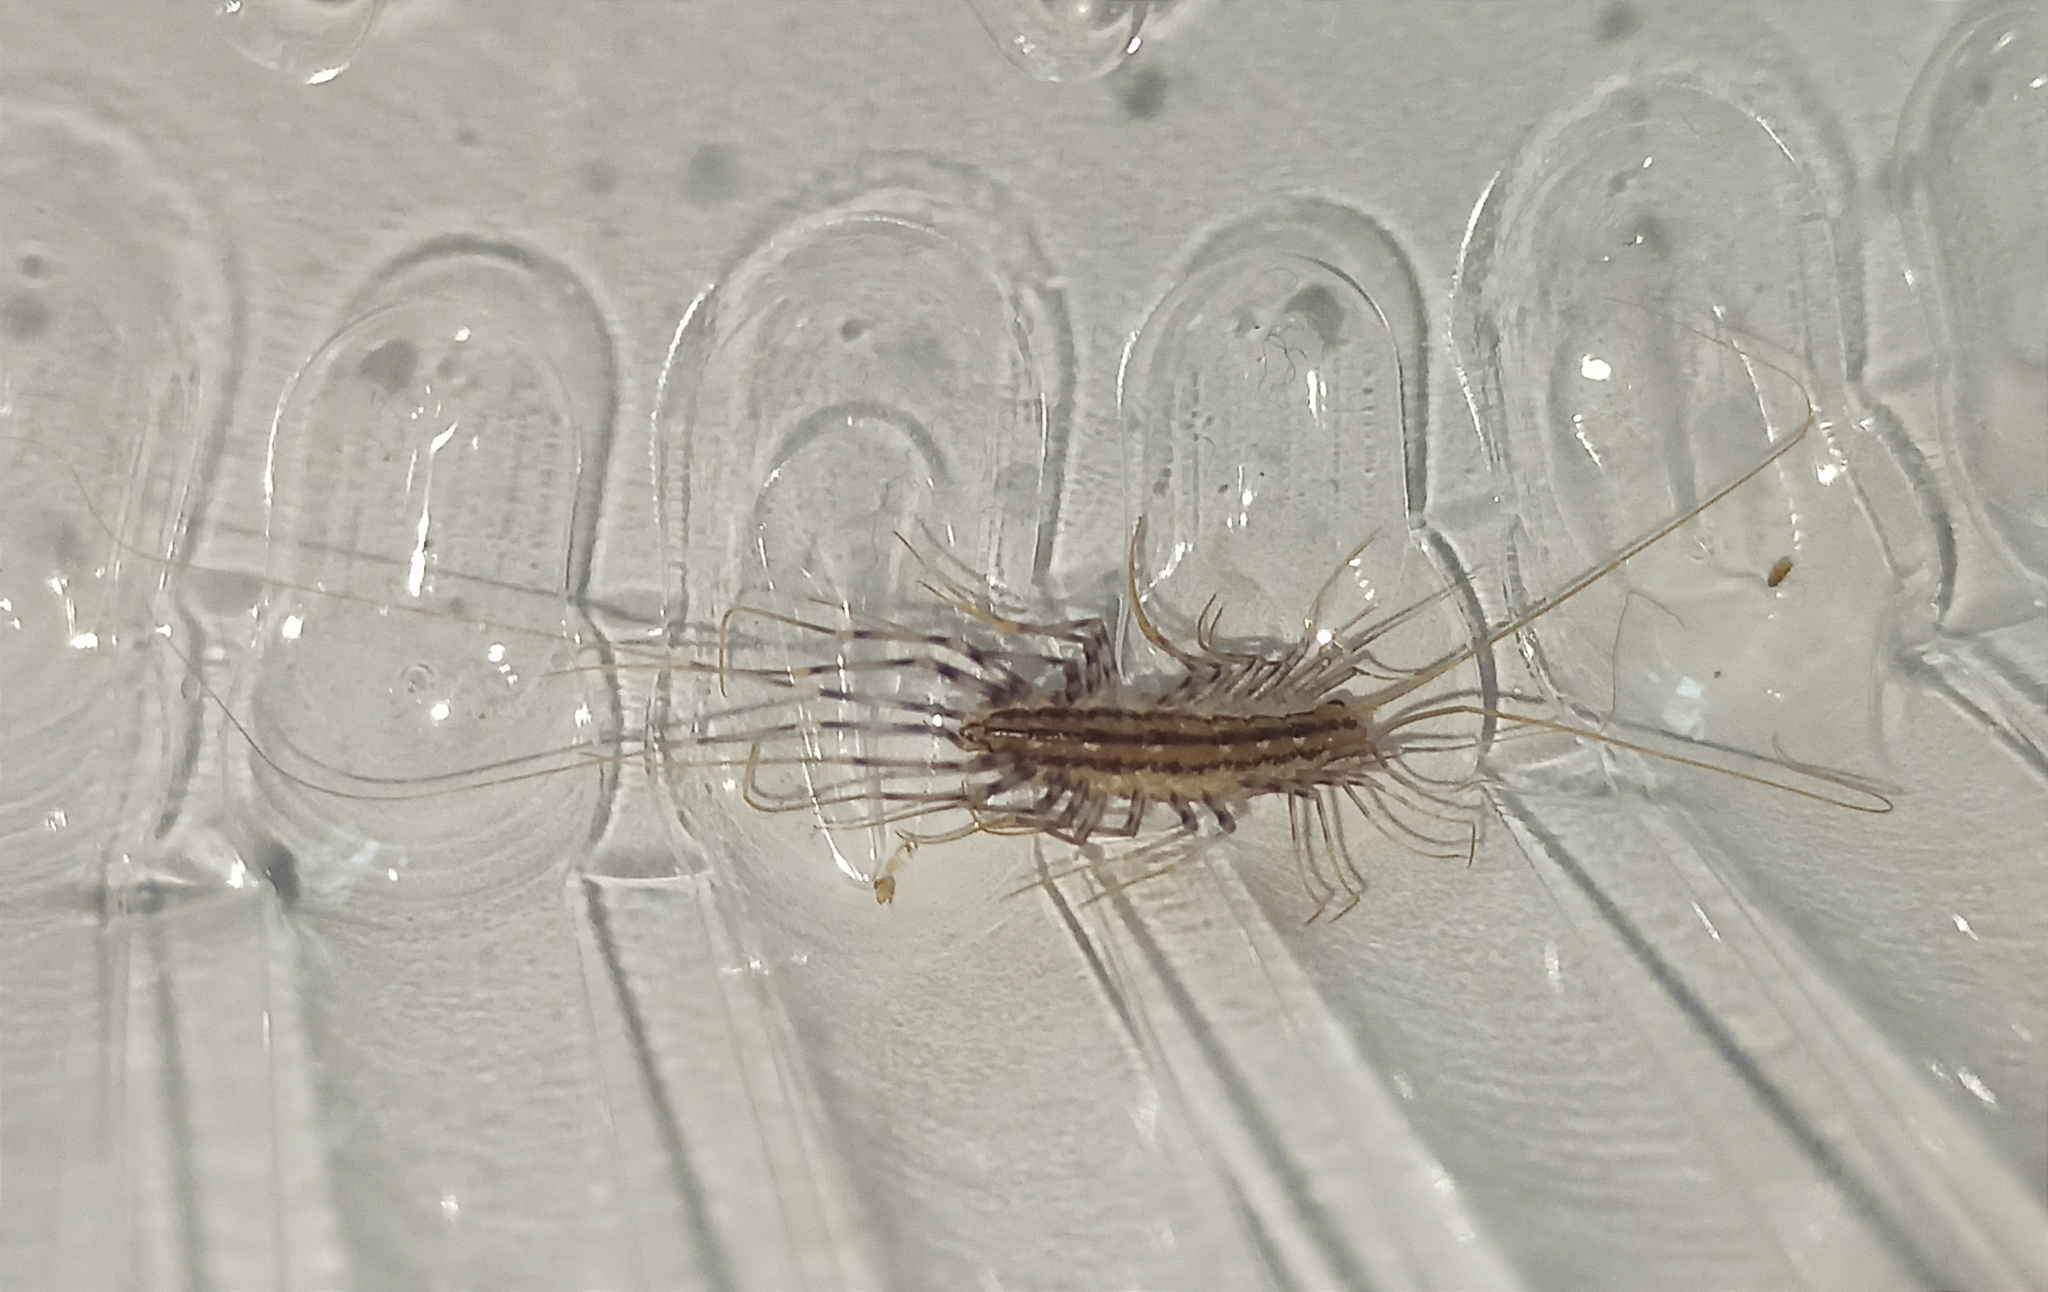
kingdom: Animalia
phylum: Arthropoda
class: Chilopoda
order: Scutigeromorpha
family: Scutigeridae
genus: Scutigera
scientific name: Scutigera coleoptrata
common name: House centipede
